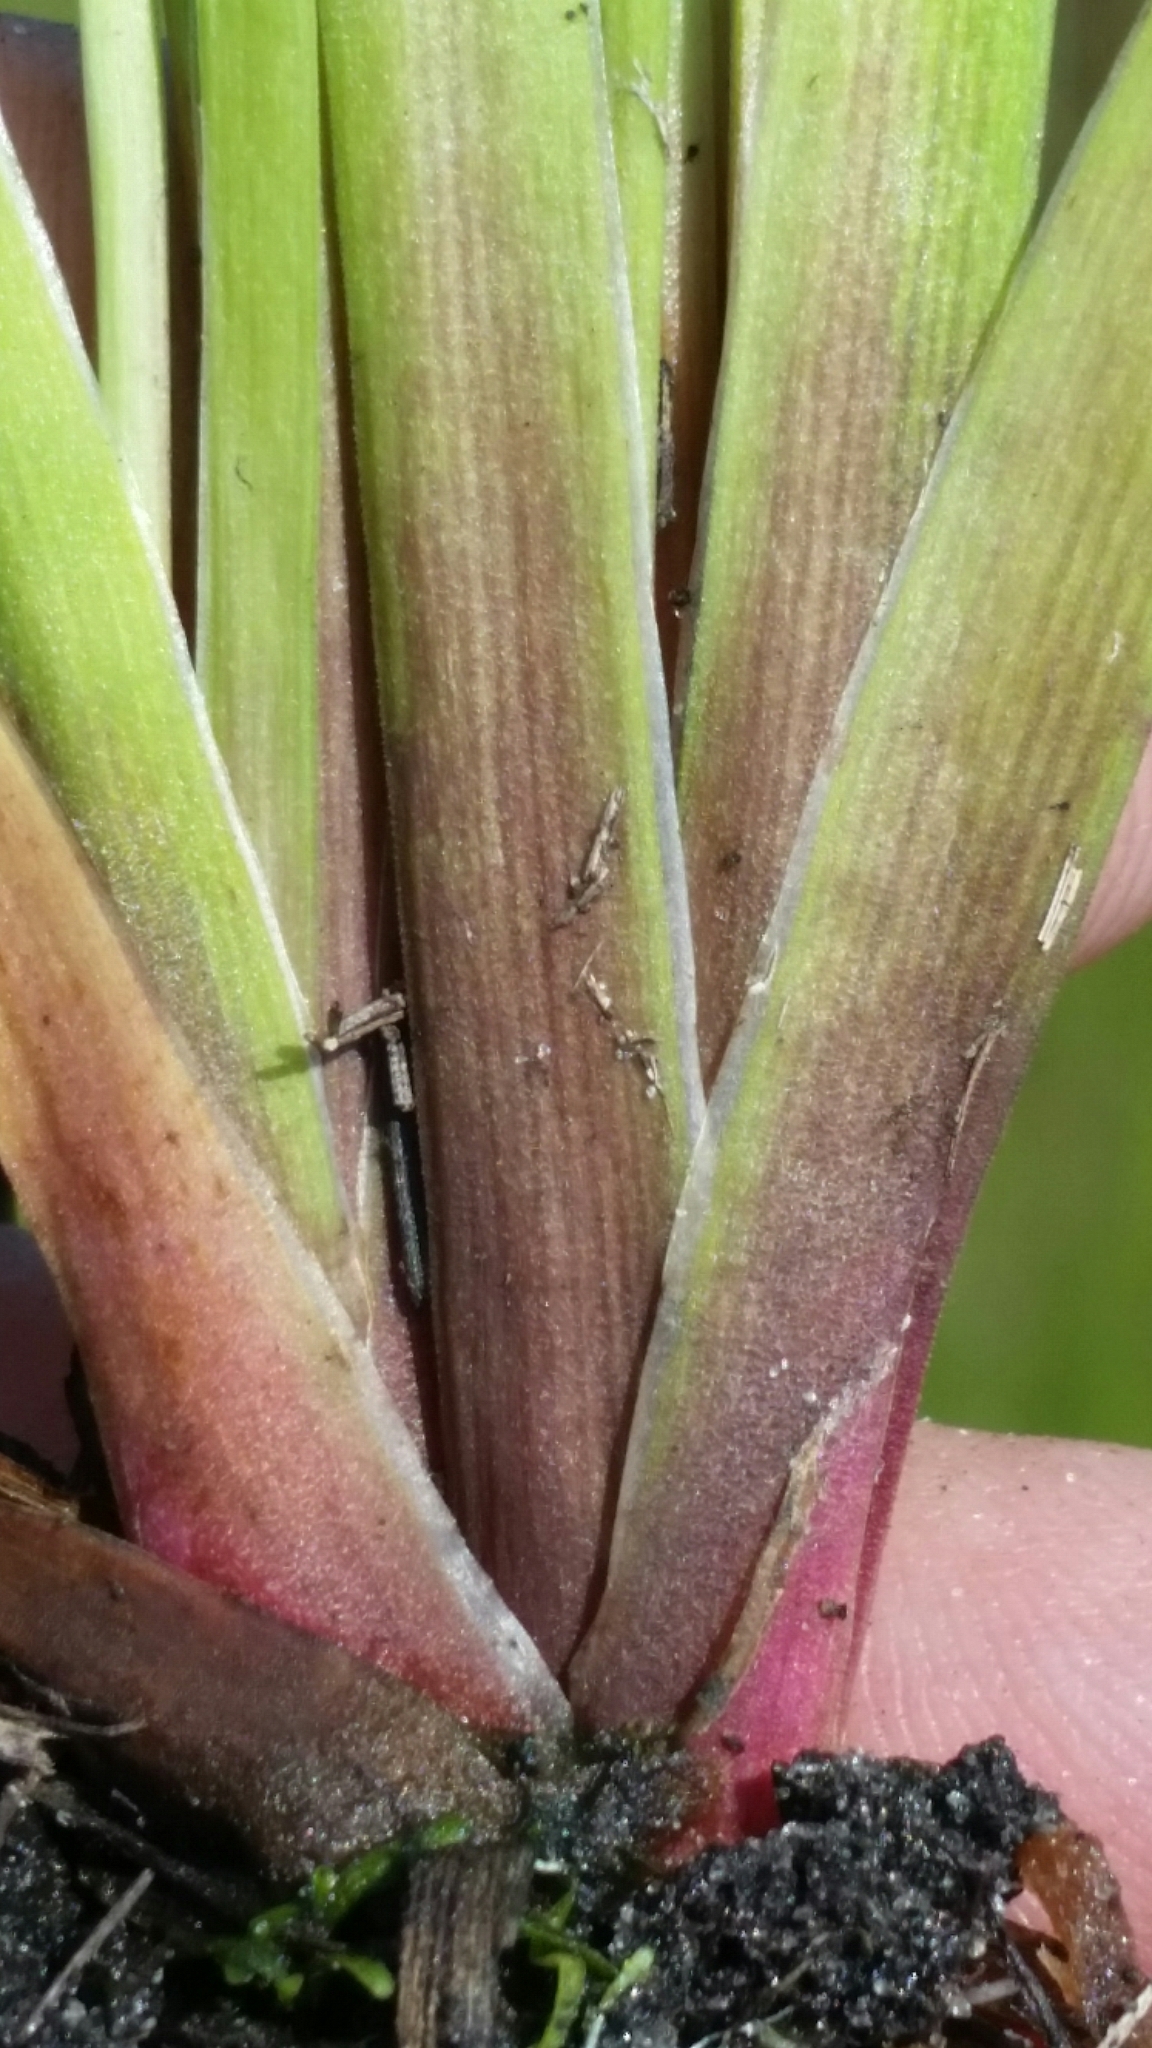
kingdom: Plantae
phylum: Tracheophyta
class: Liliopsida
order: Poales
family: Xyridaceae
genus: Xyris
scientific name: Xyris floridana
